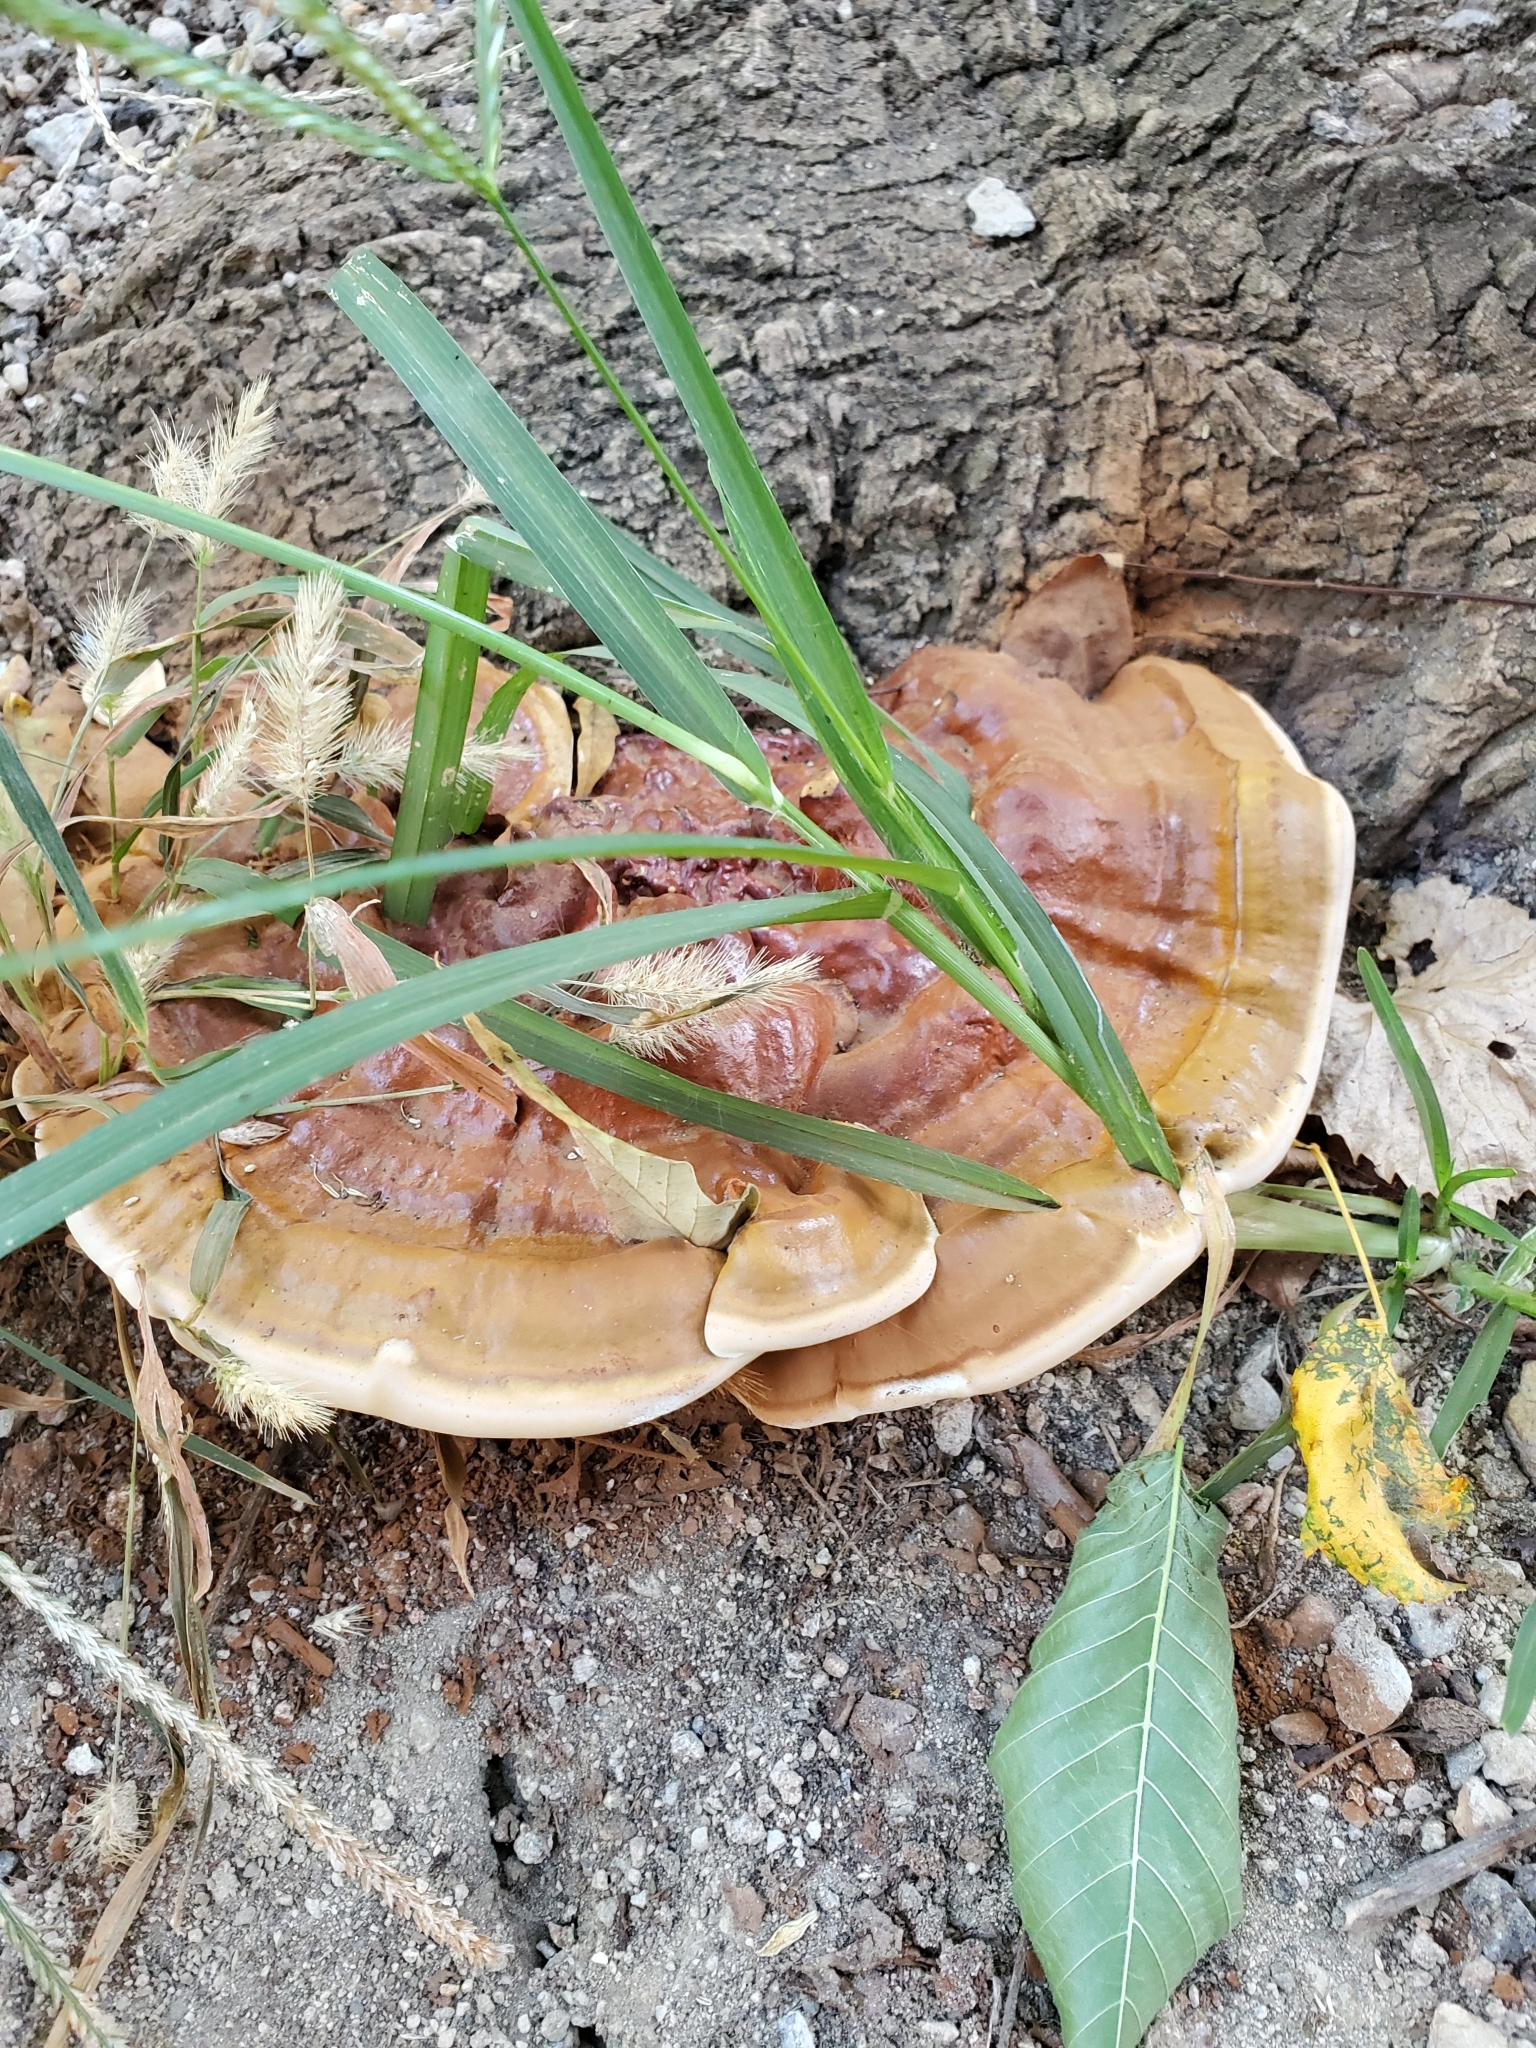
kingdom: Fungi
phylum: Basidiomycota
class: Agaricomycetes
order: Polyporales
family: Polyporaceae
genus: Ganoderma
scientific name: Ganoderma resinaceum
